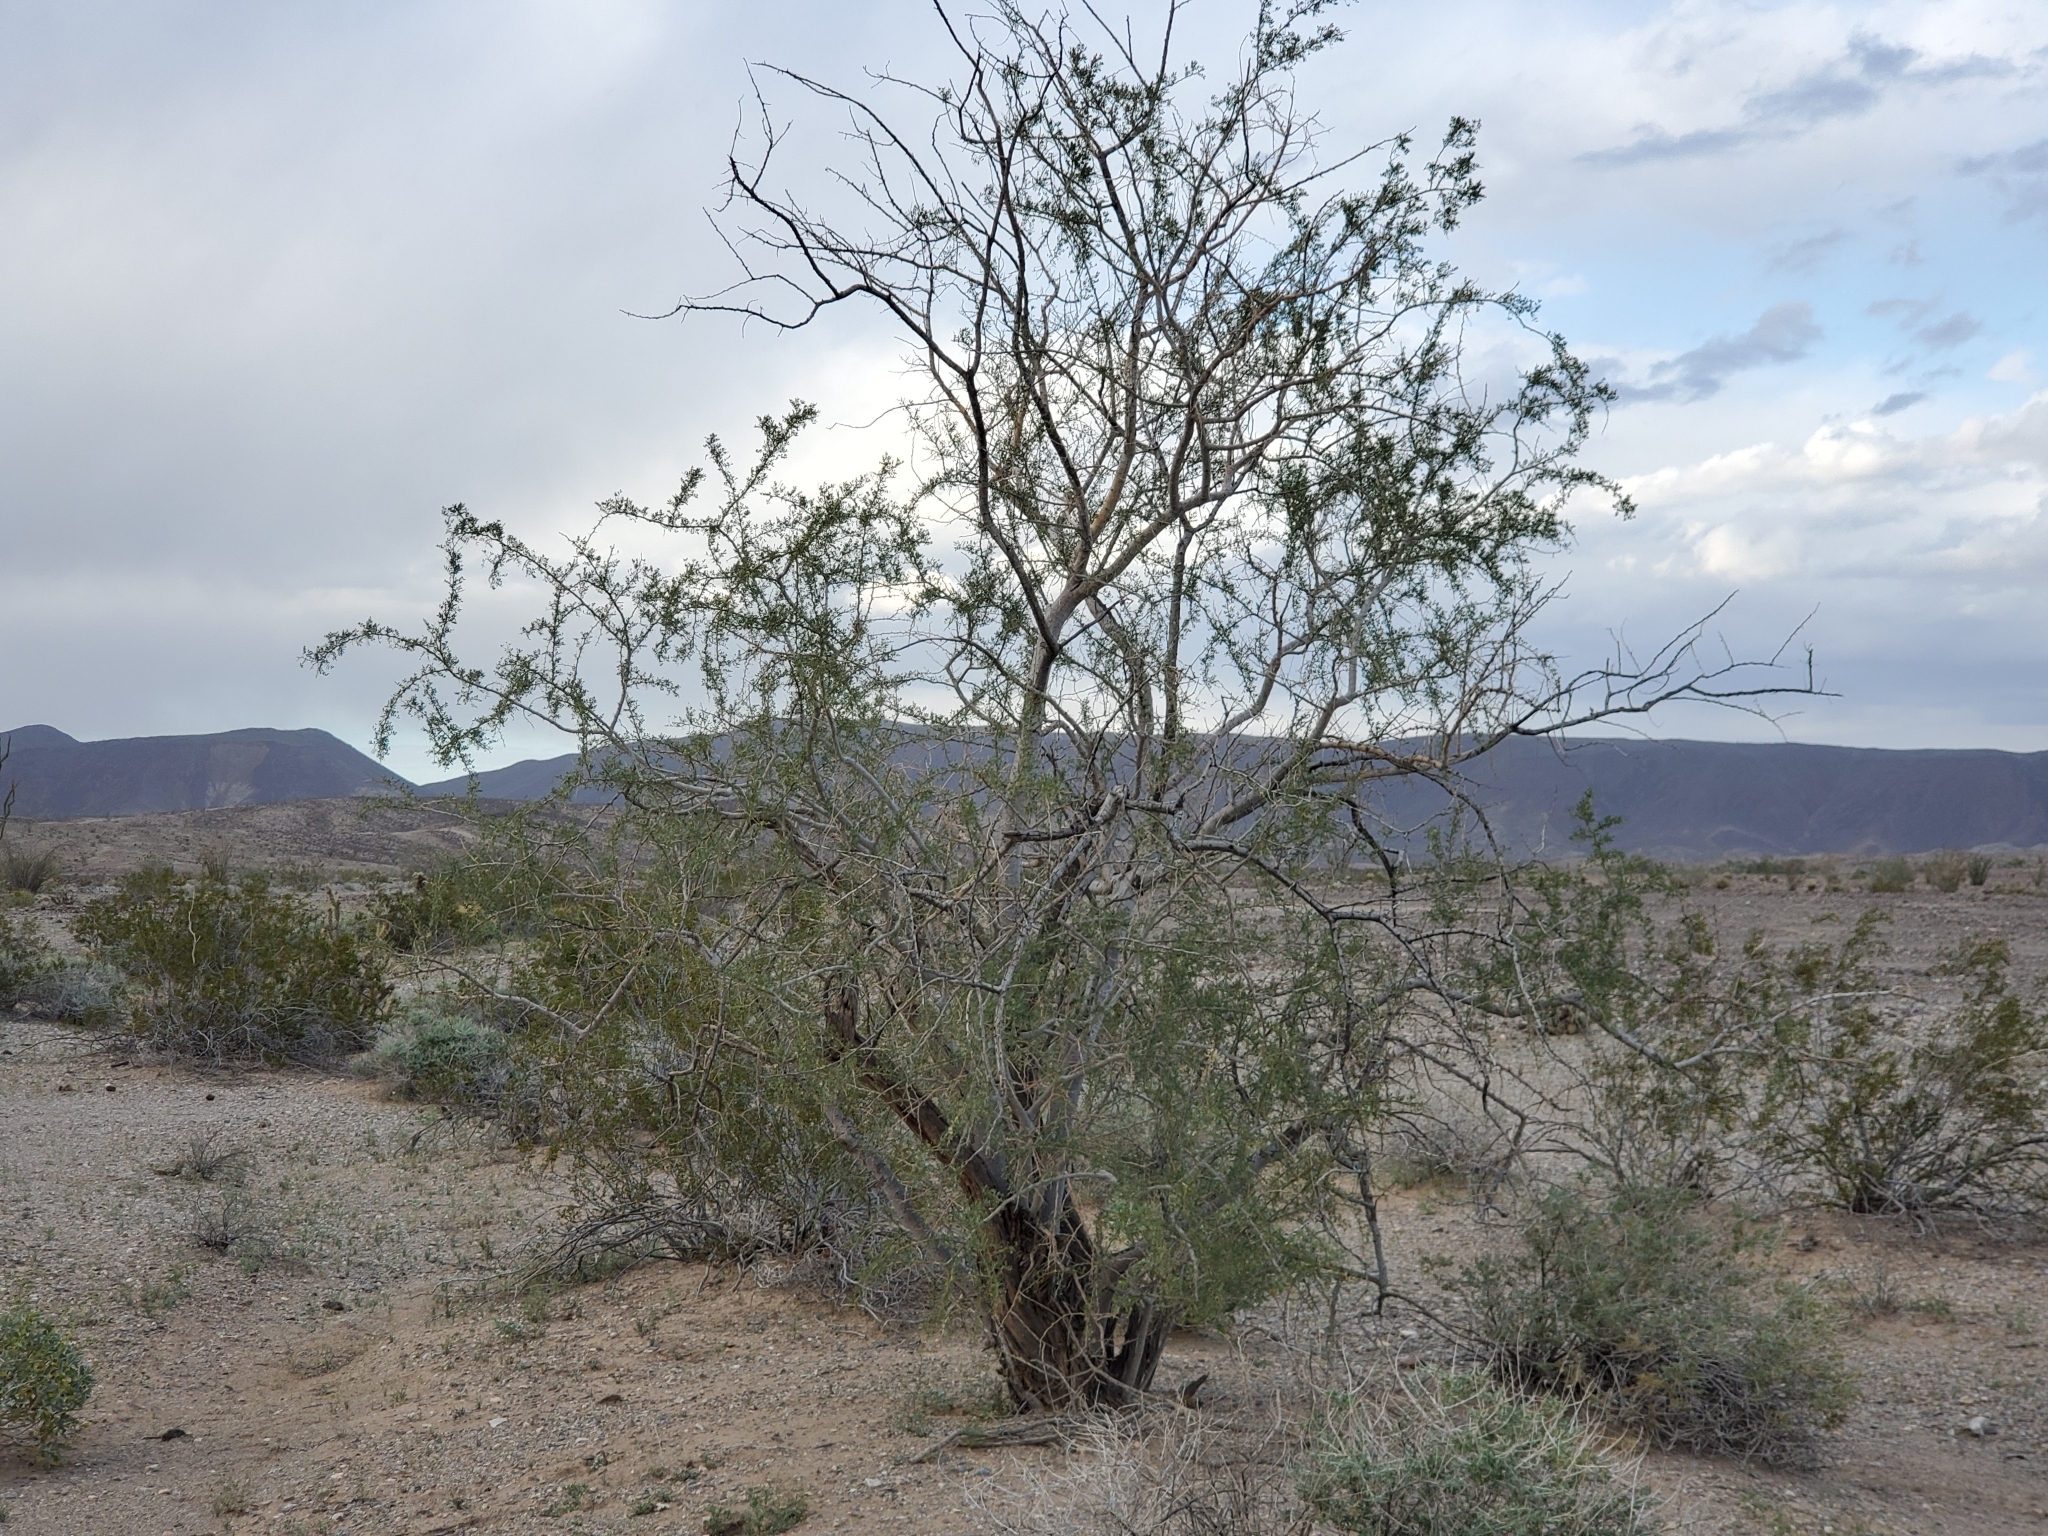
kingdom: Plantae
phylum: Tracheophyta
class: Magnoliopsida
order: Fabales
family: Fabaceae
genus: Olneya
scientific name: Olneya tesota
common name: Desert ironwood
